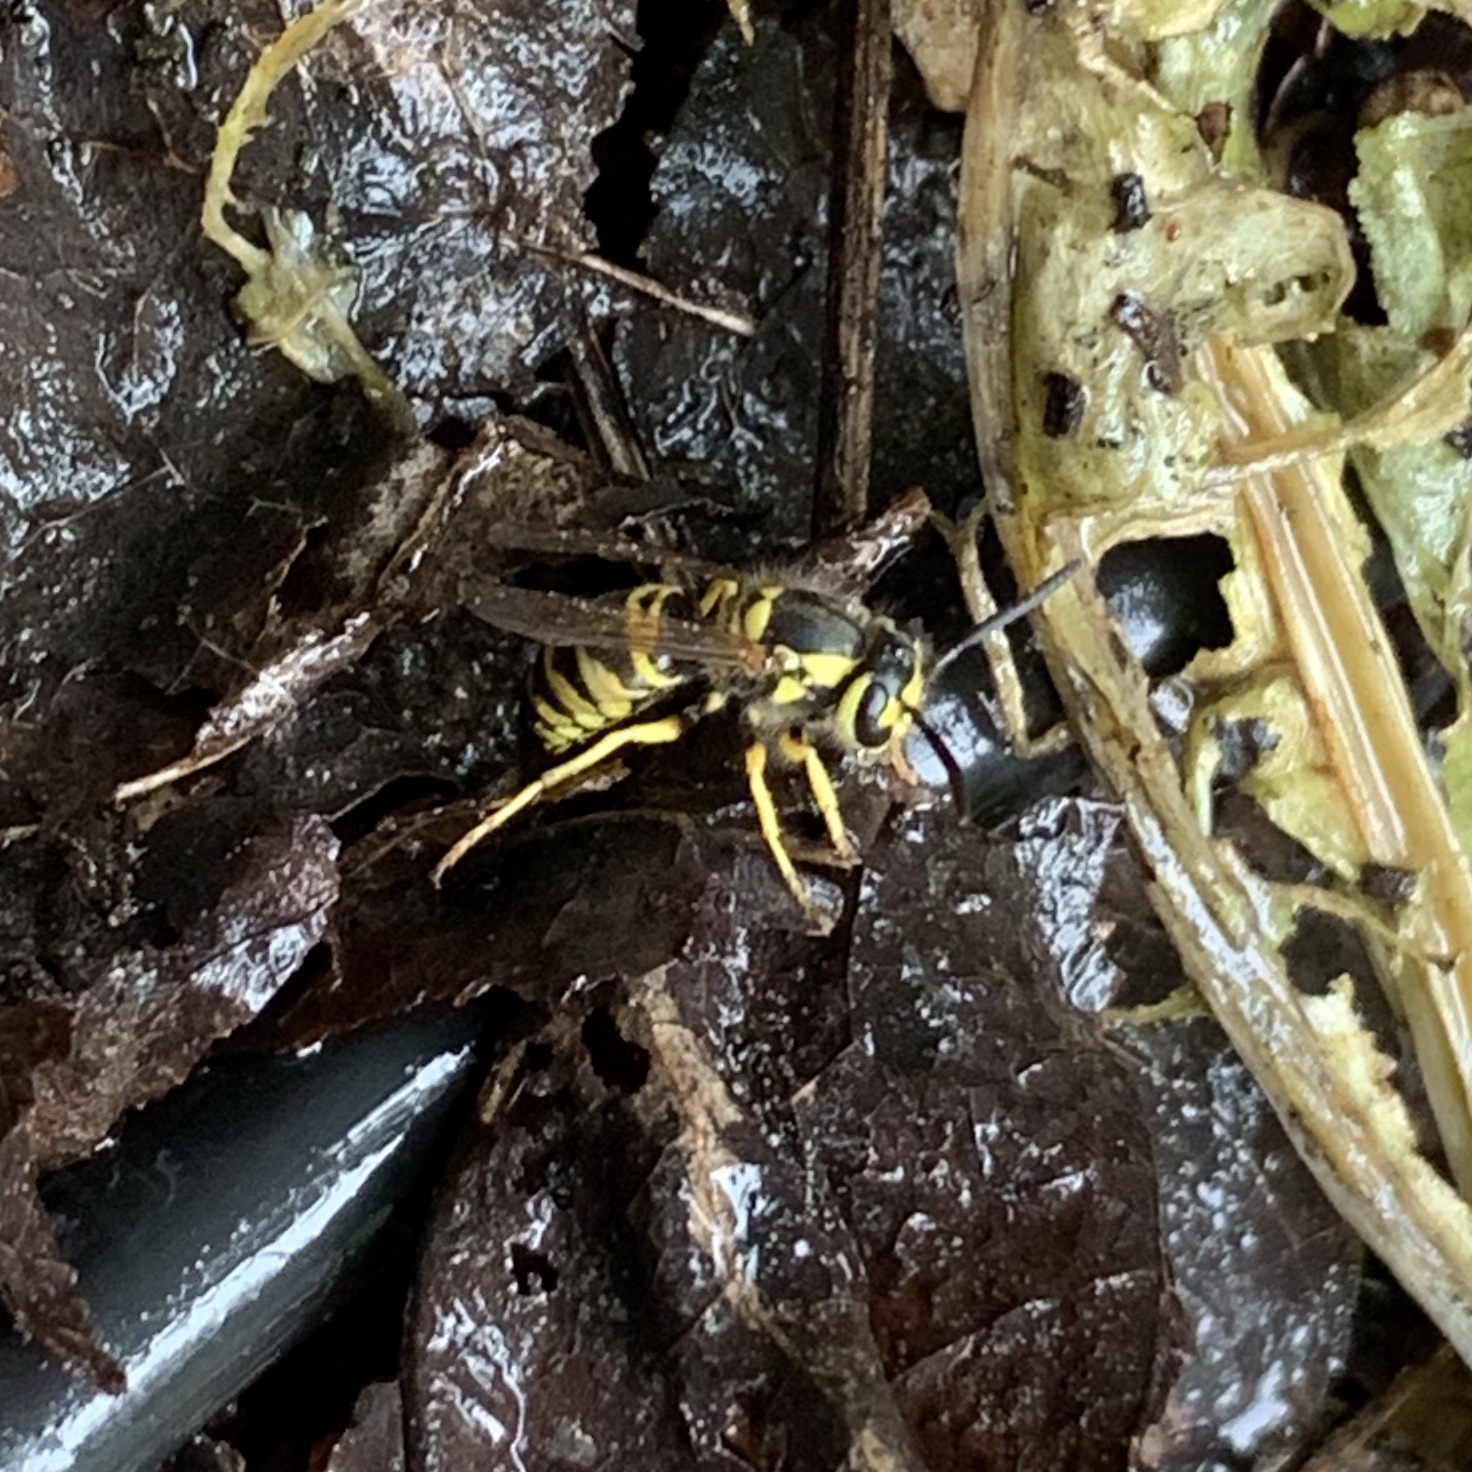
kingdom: Animalia
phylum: Arthropoda
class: Insecta
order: Hymenoptera
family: Vespidae
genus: Vespula
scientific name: Vespula maculifrons
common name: Eastern yellowjacket
